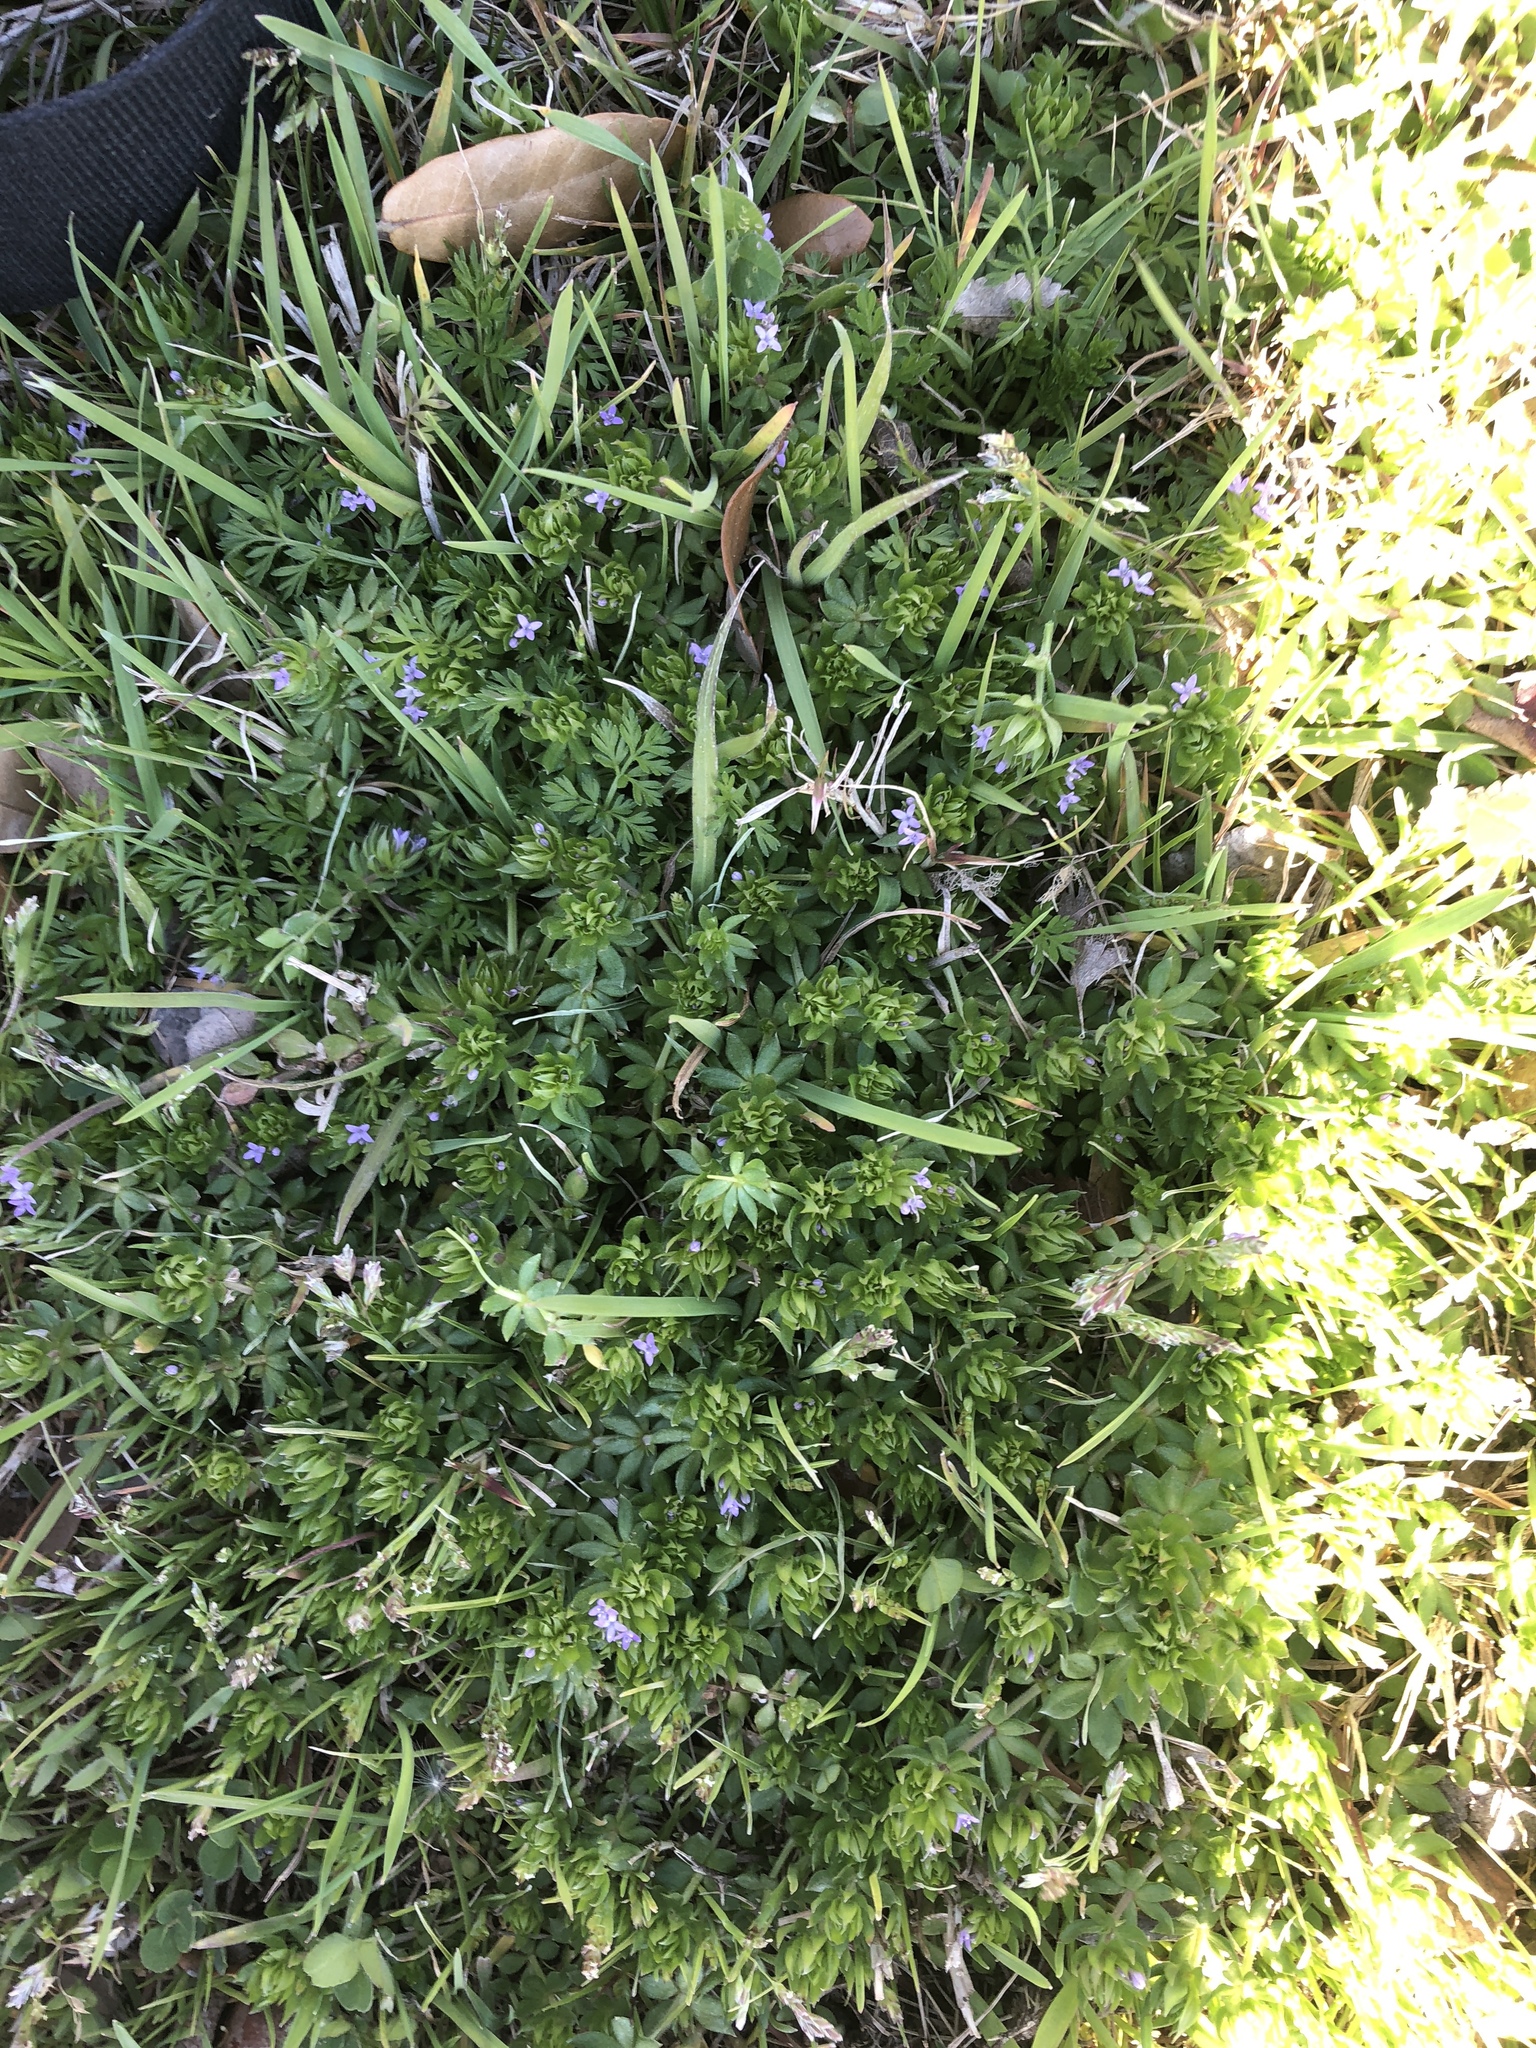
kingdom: Plantae
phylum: Tracheophyta
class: Magnoliopsida
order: Gentianales
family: Rubiaceae
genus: Sherardia
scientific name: Sherardia arvensis
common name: Field madder
